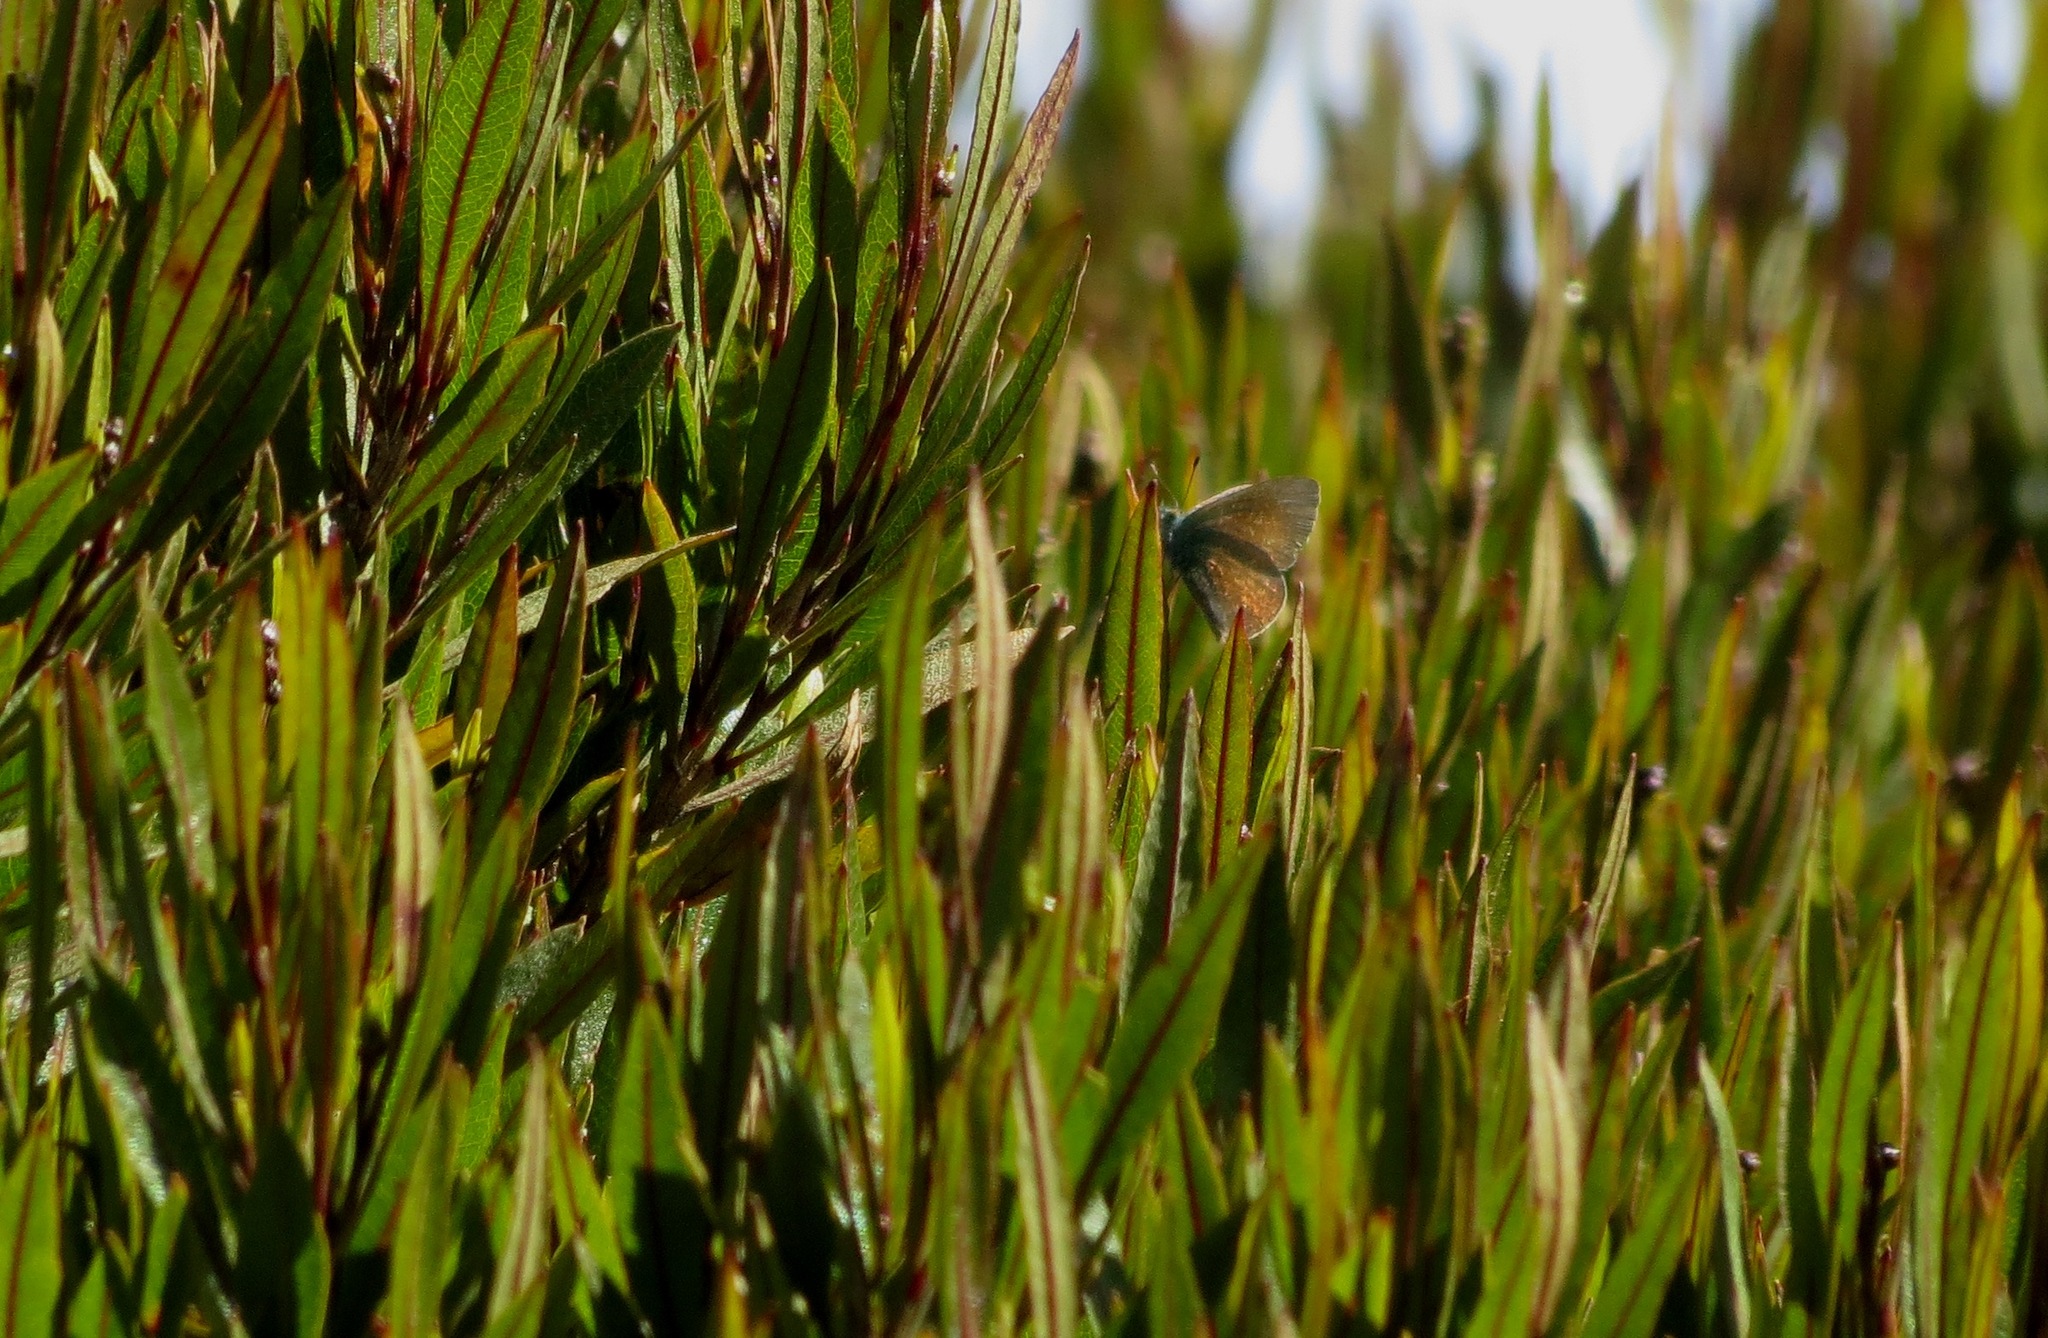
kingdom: Animalia
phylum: Arthropoda
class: Insecta
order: Lepidoptera
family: Lycaenidae
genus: Udara
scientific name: Udara blackburni
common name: Blackburn's blue
